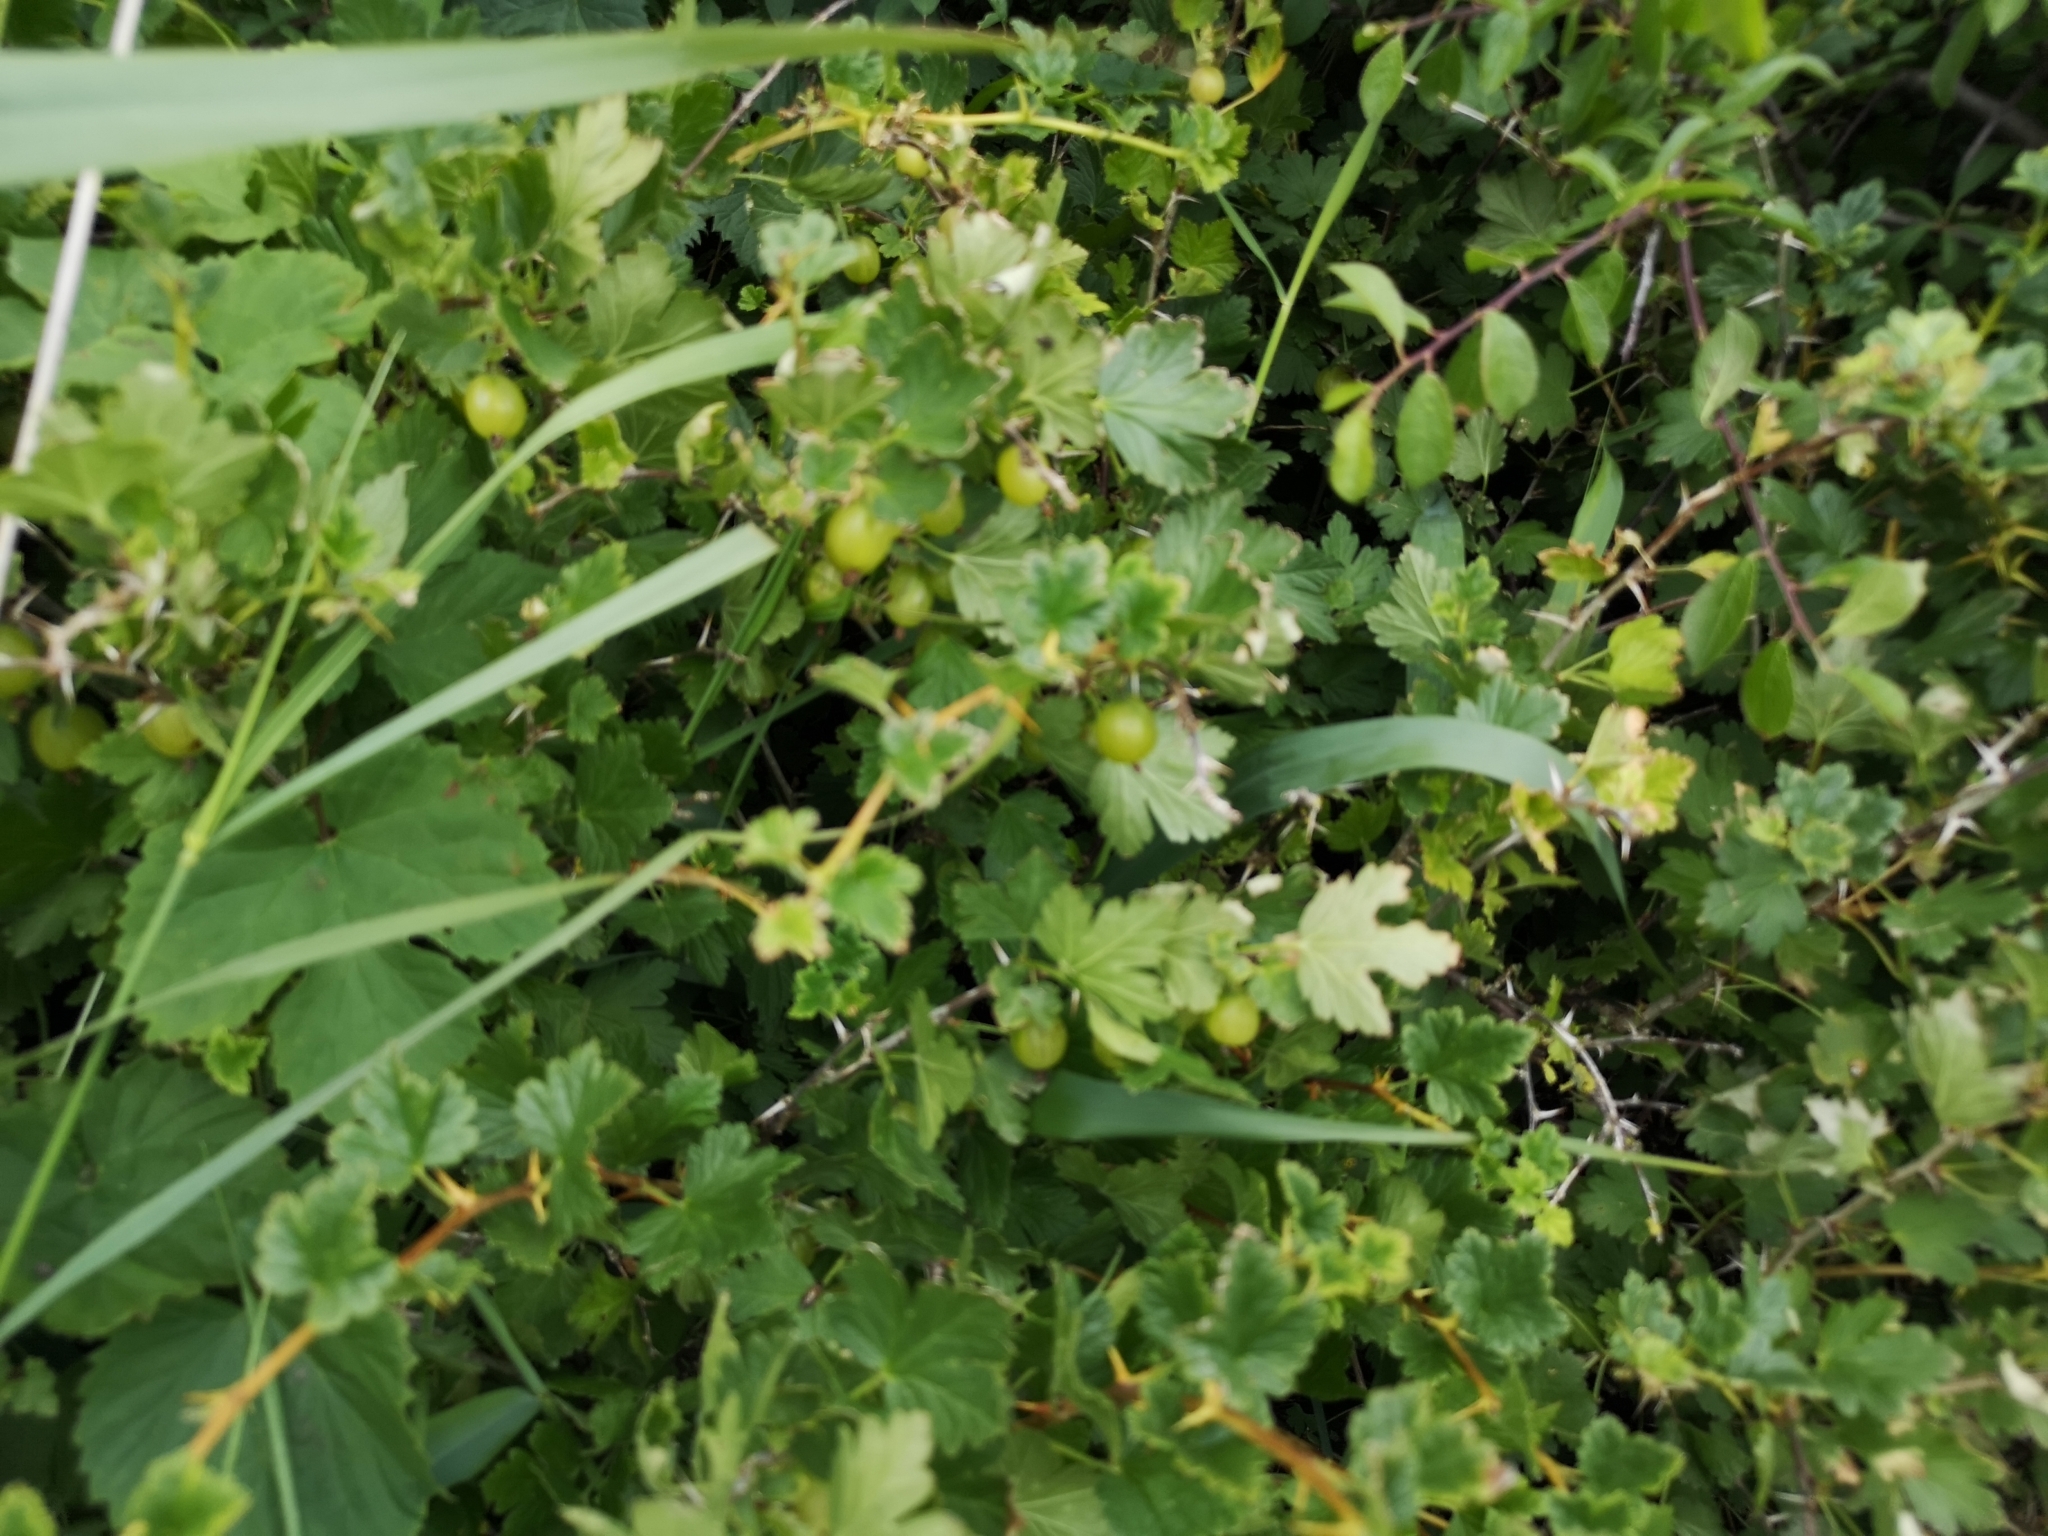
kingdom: Plantae
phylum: Tracheophyta
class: Magnoliopsida
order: Saxifragales
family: Grossulariaceae
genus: Ribes
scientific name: Ribes uva-crispa
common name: Gooseberry
